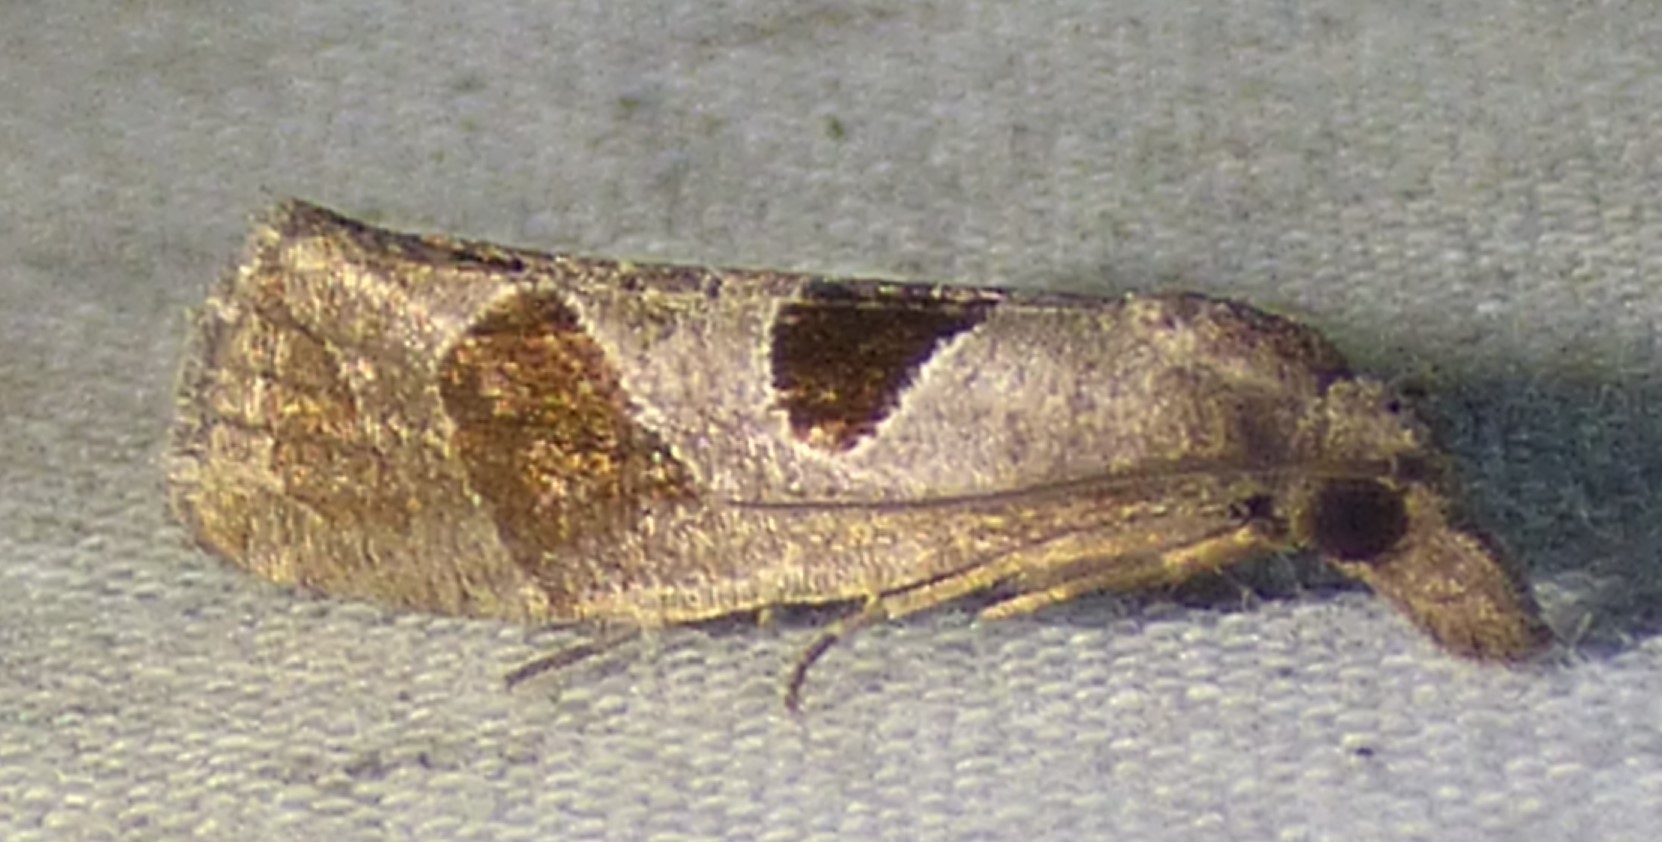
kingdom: Animalia
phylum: Arthropoda
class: Insecta
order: Lepidoptera
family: Tortricidae
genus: Pelochrista
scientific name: Pelochrista dorsisignatana
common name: Triangle-backed pelochrista moth
